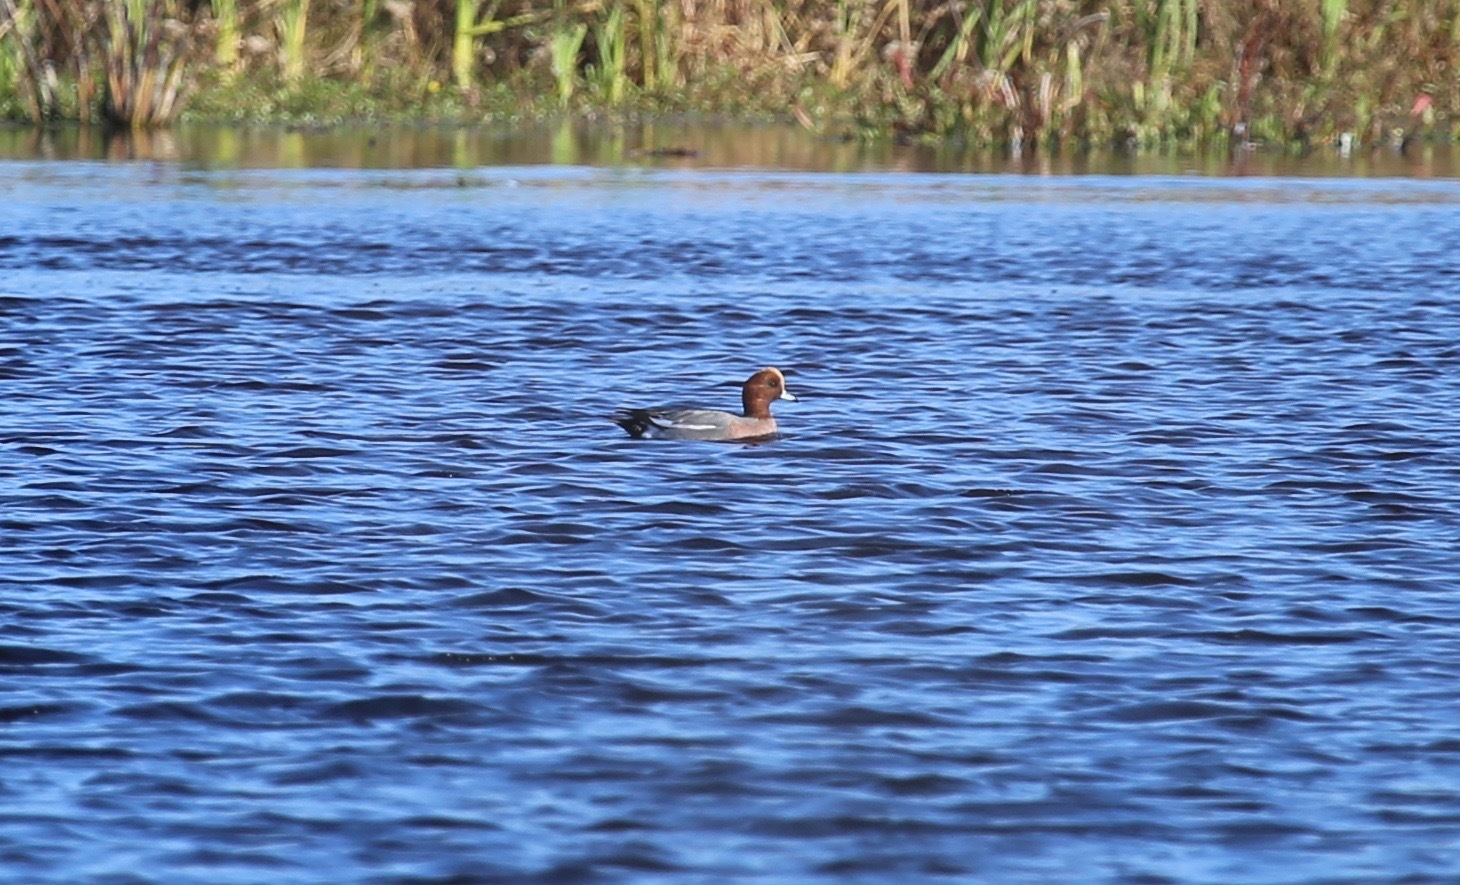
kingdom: Animalia
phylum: Chordata
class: Aves
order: Anseriformes
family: Anatidae
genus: Mareca
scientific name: Mareca penelope
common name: Eurasian wigeon
